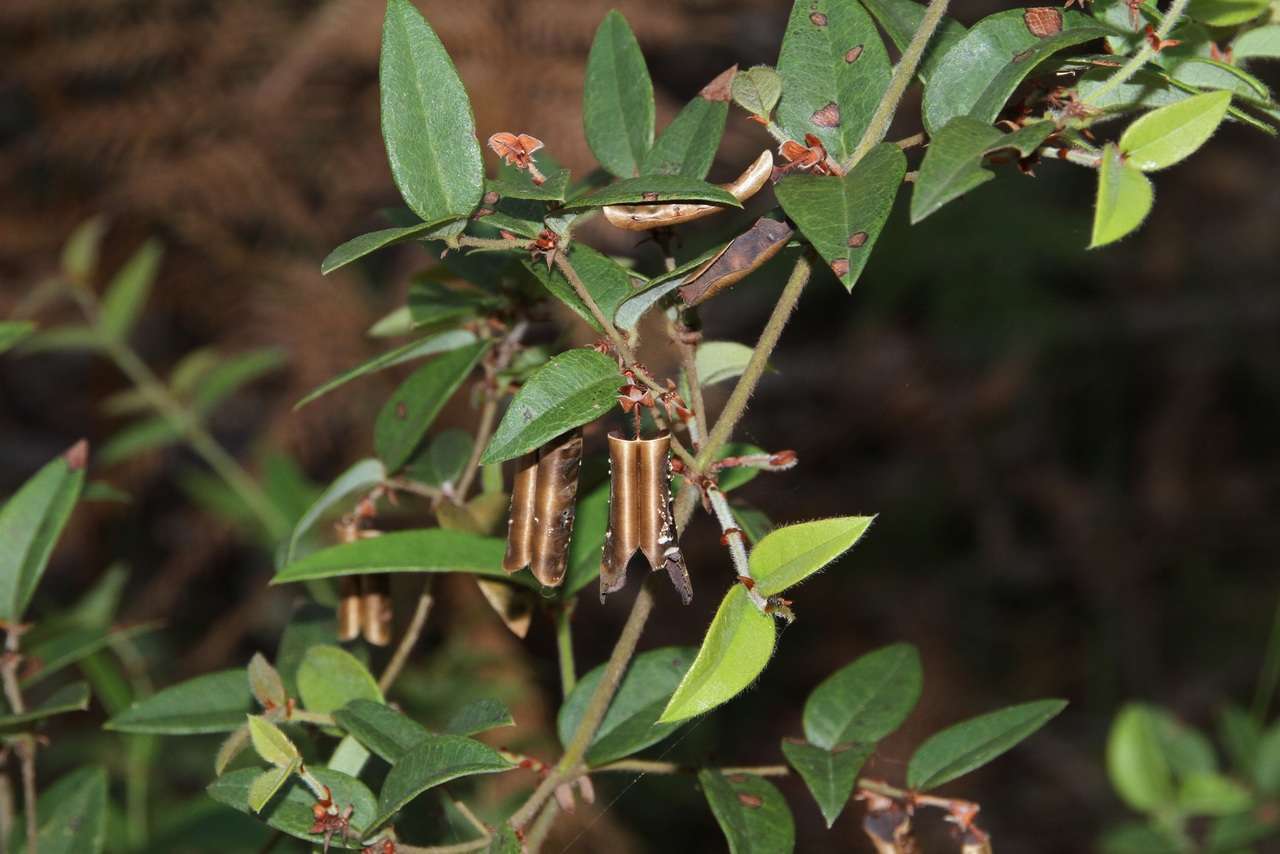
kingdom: Plantae
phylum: Tracheophyta
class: Magnoliopsida
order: Fabales
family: Fabaceae
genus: Platylobium
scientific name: Platylobium parviflorum
